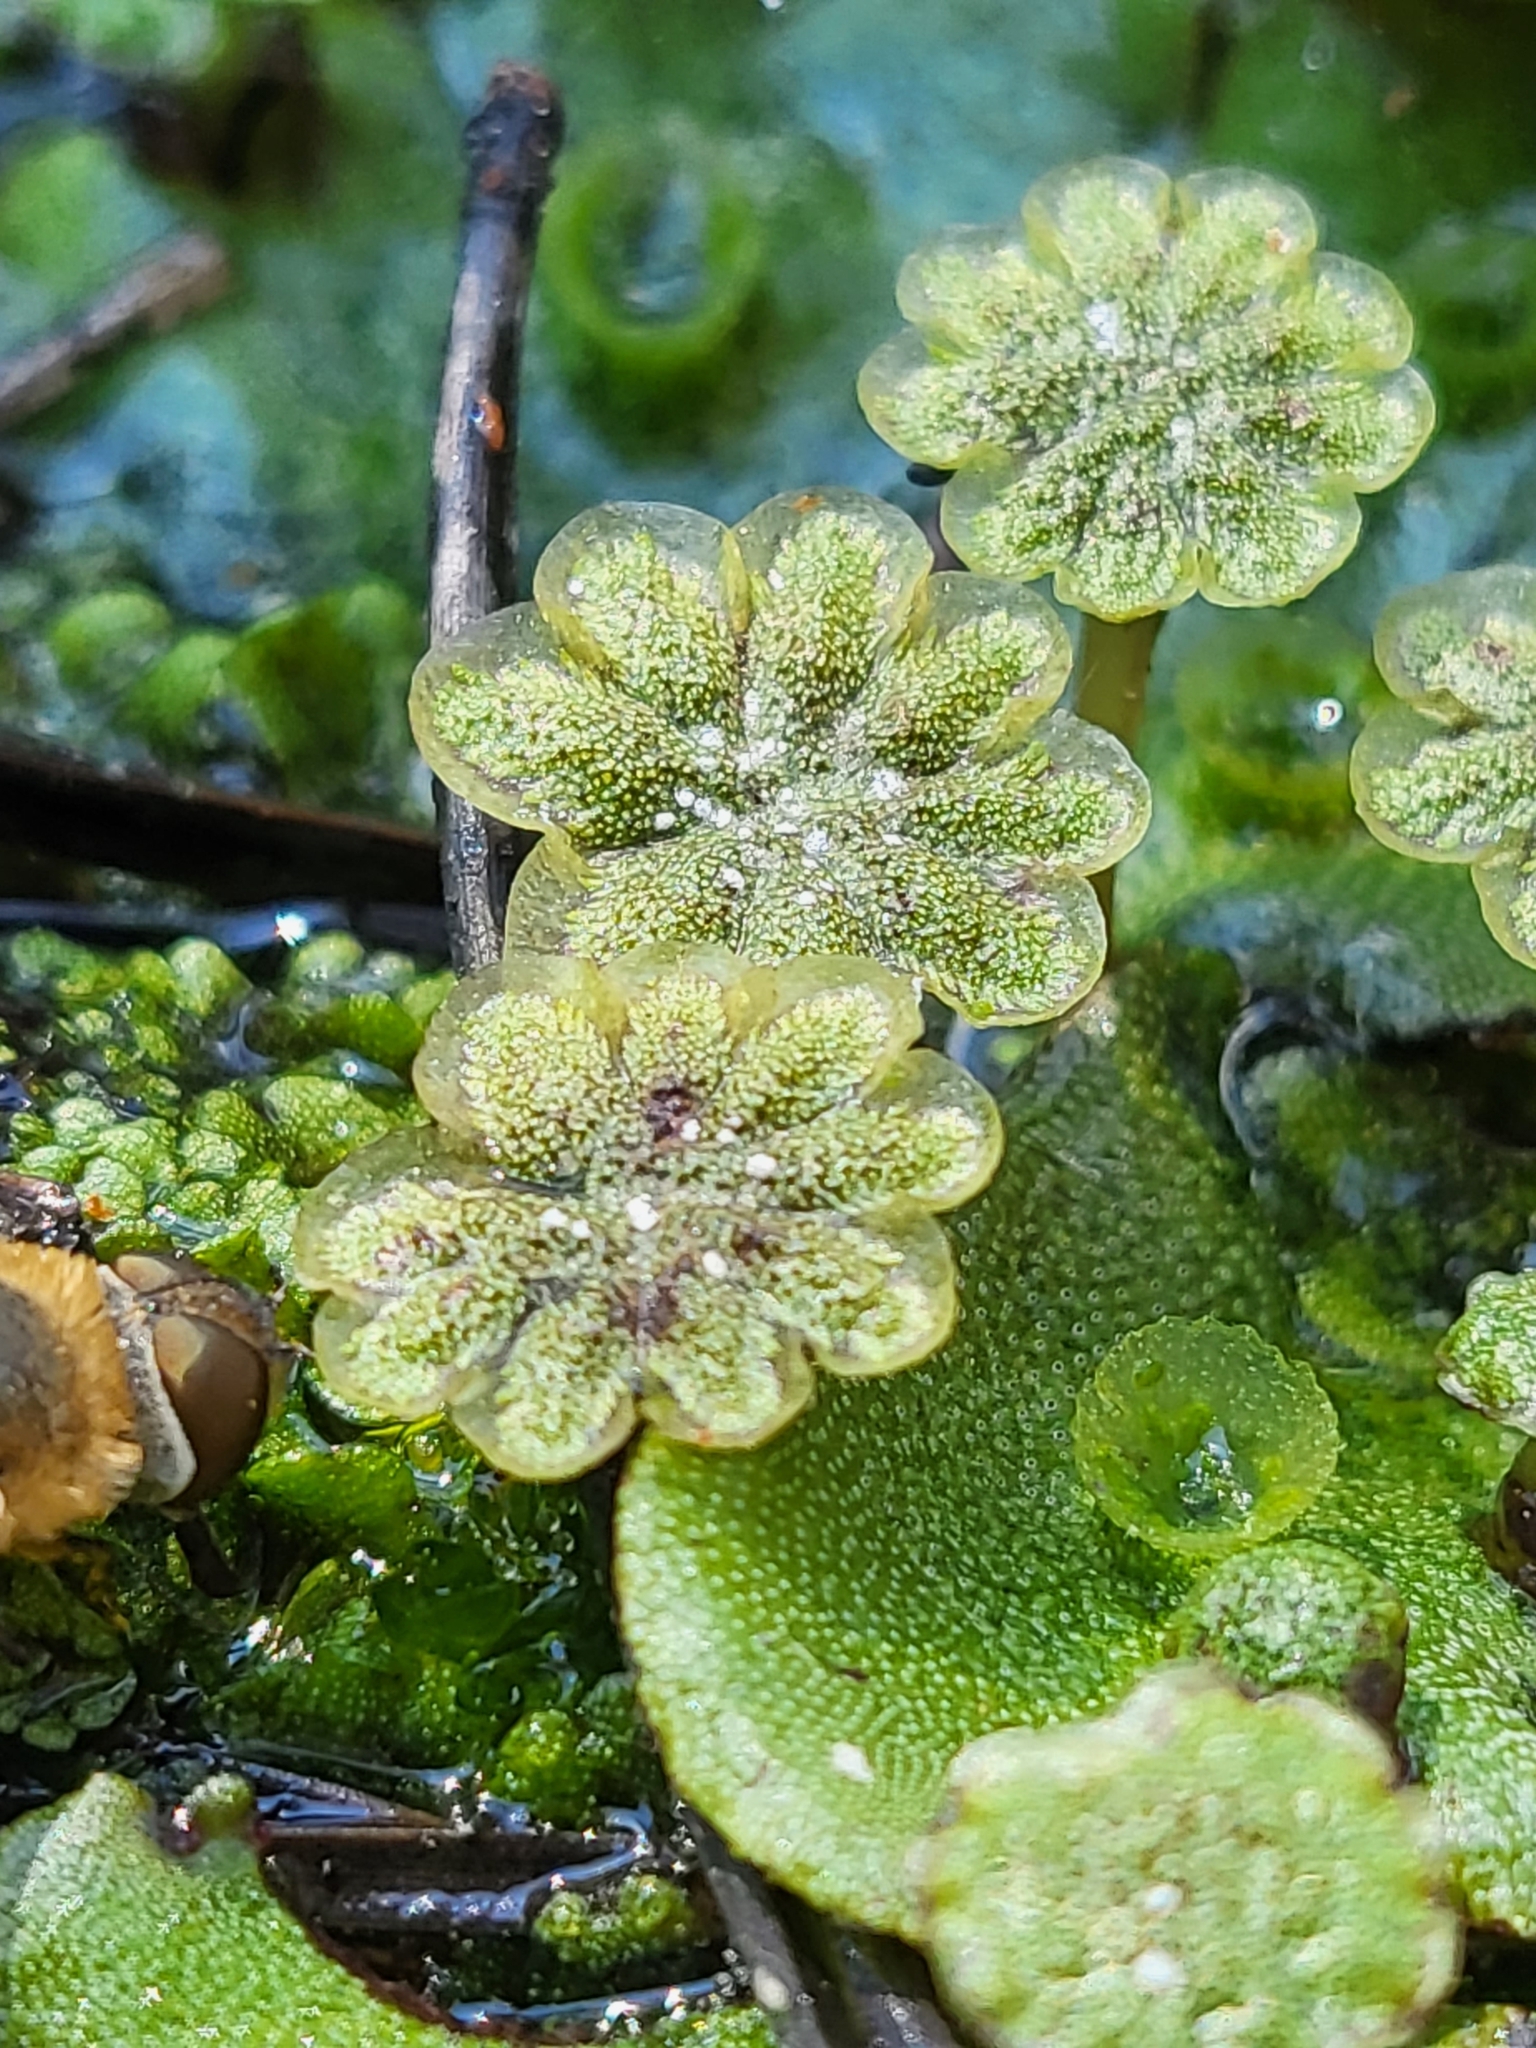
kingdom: Plantae
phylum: Marchantiophyta
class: Marchantiopsida
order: Marchantiales
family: Marchantiaceae
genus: Marchantia
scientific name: Marchantia polymorpha
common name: Common liverwort
